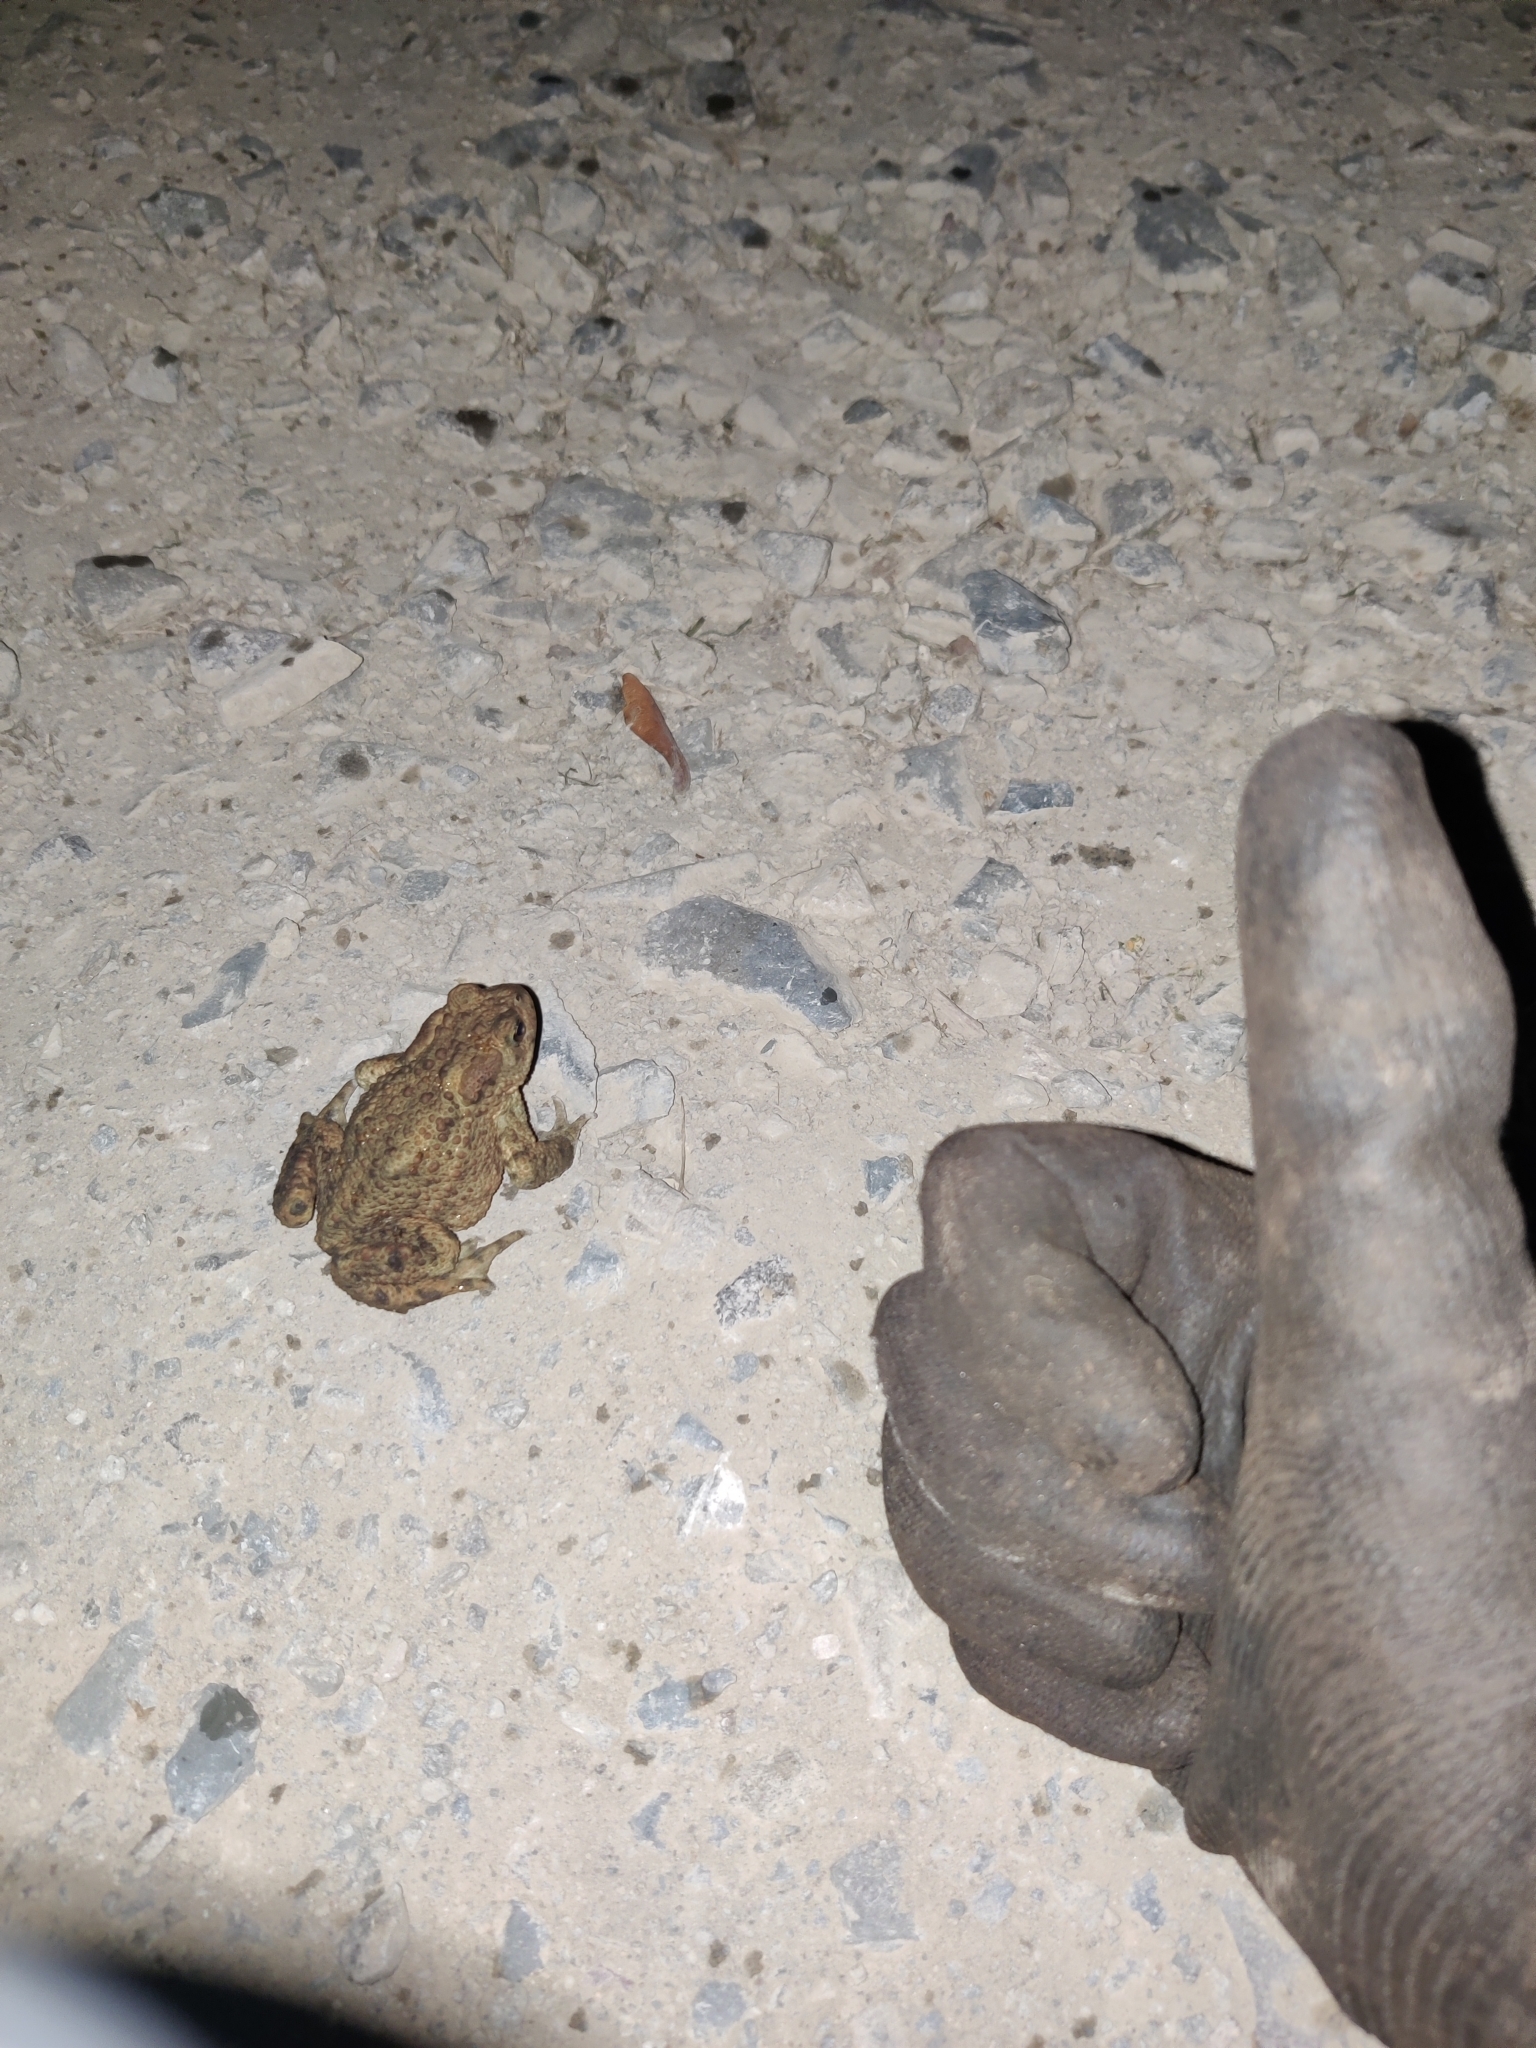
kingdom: Animalia
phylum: Chordata
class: Amphibia
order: Anura
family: Bufonidae
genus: Bufo
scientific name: Bufo bufo
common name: Common toad
